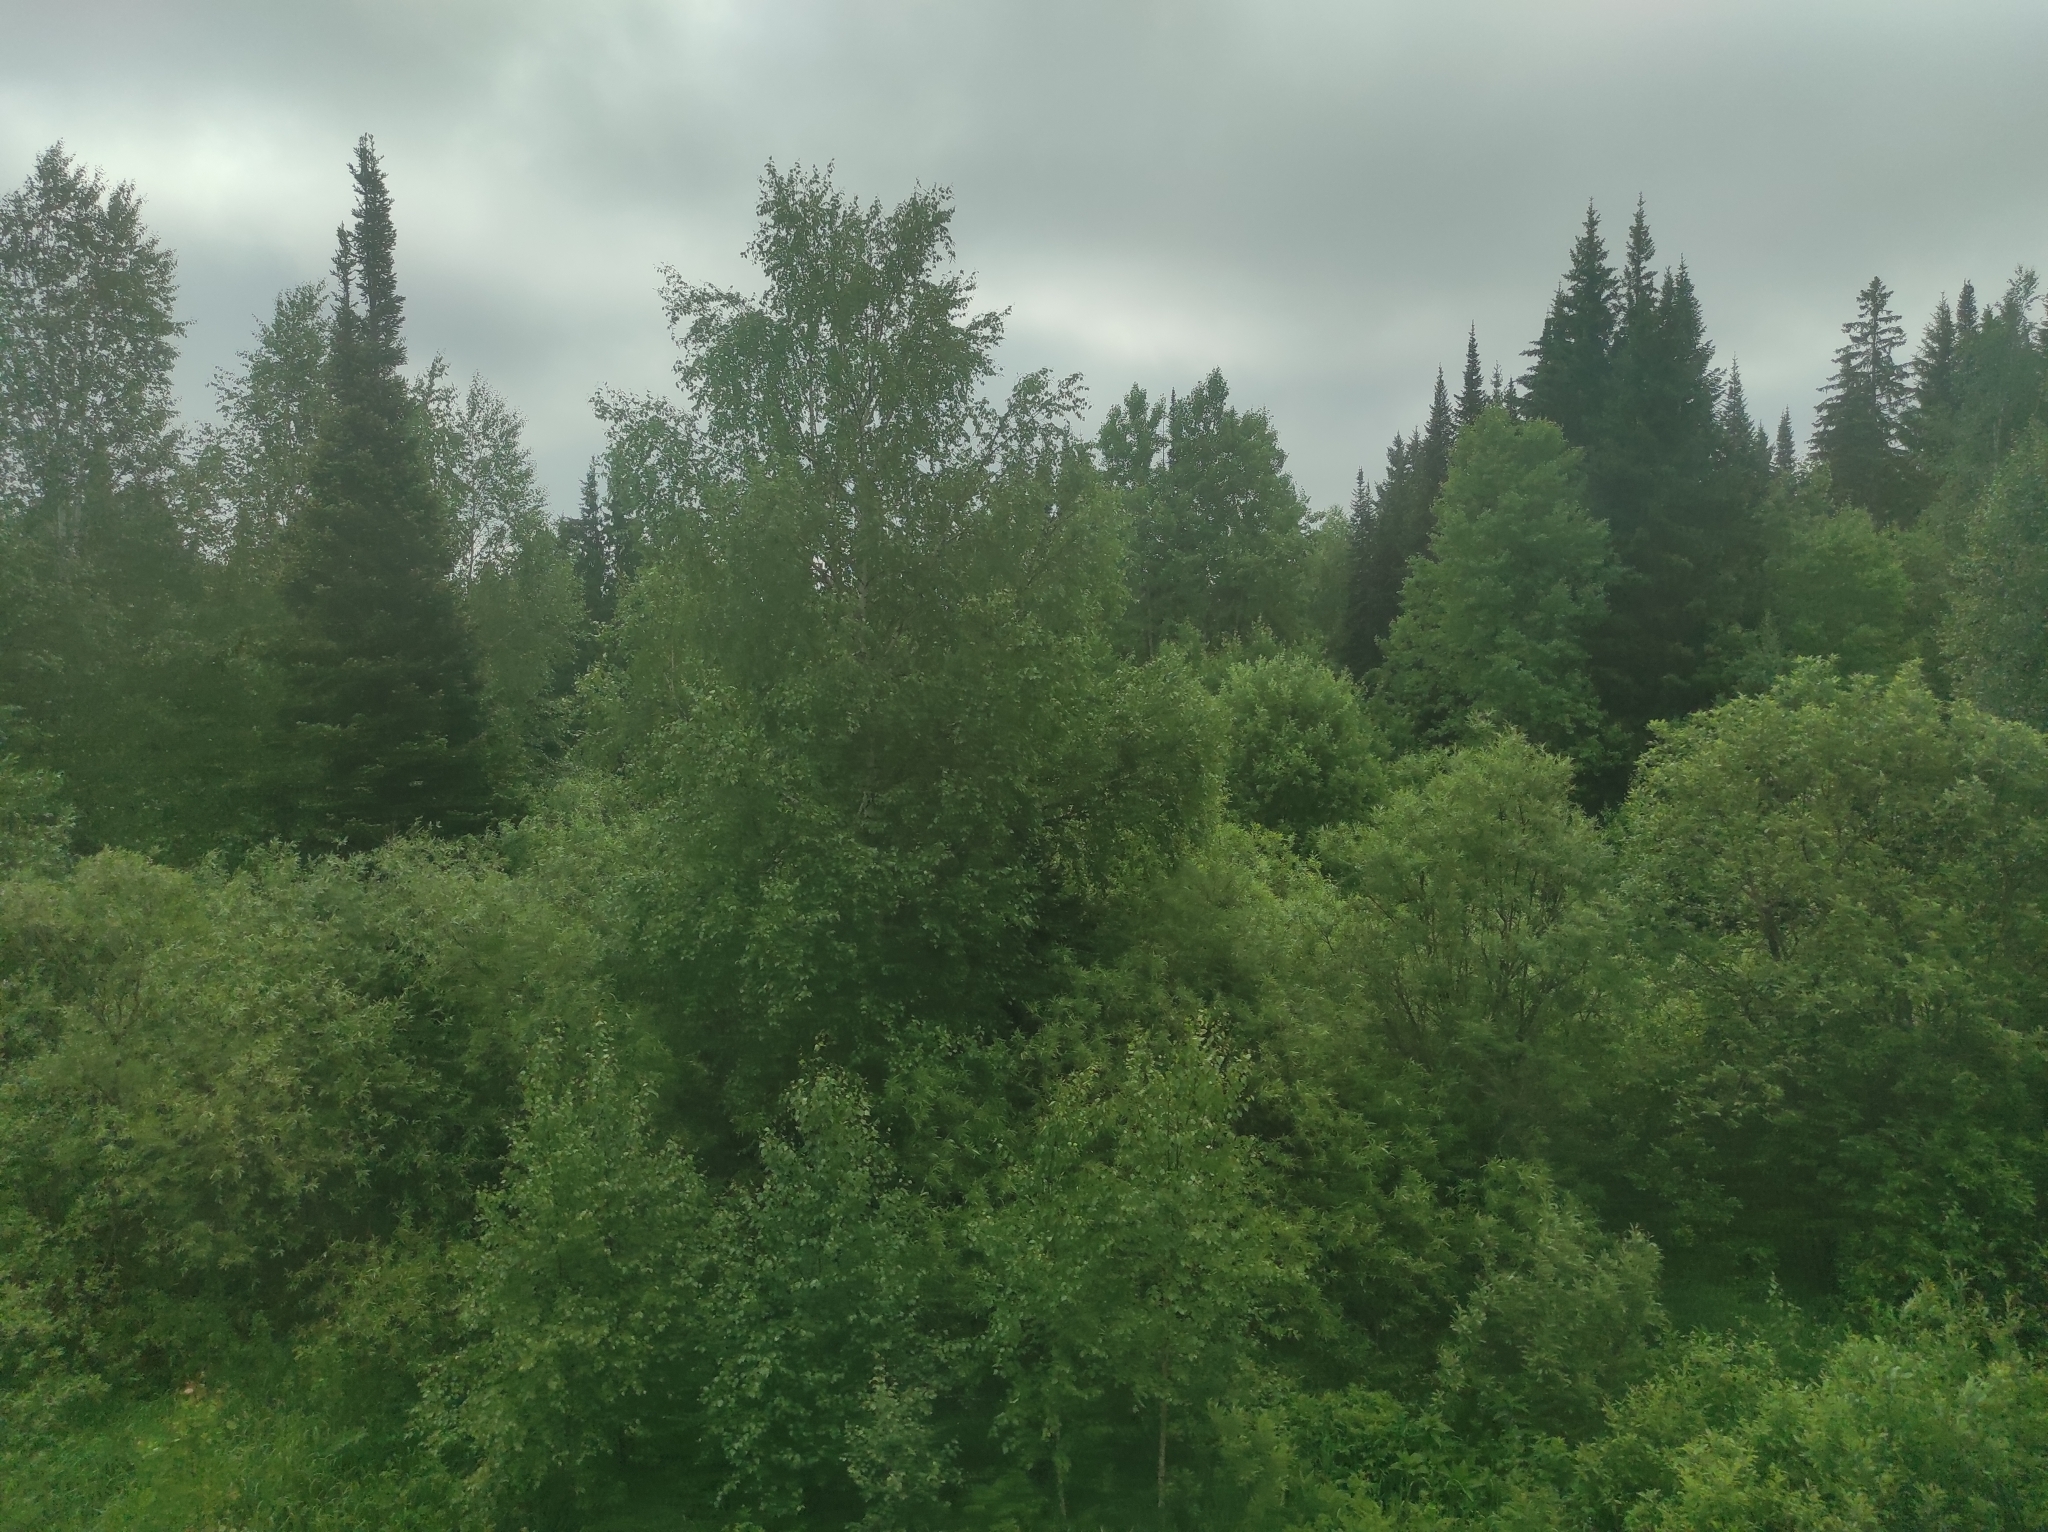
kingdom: Plantae
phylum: Tracheophyta
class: Pinopsida
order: Pinales
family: Pinaceae
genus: Picea
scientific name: Picea obovata
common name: Siberian spruce
